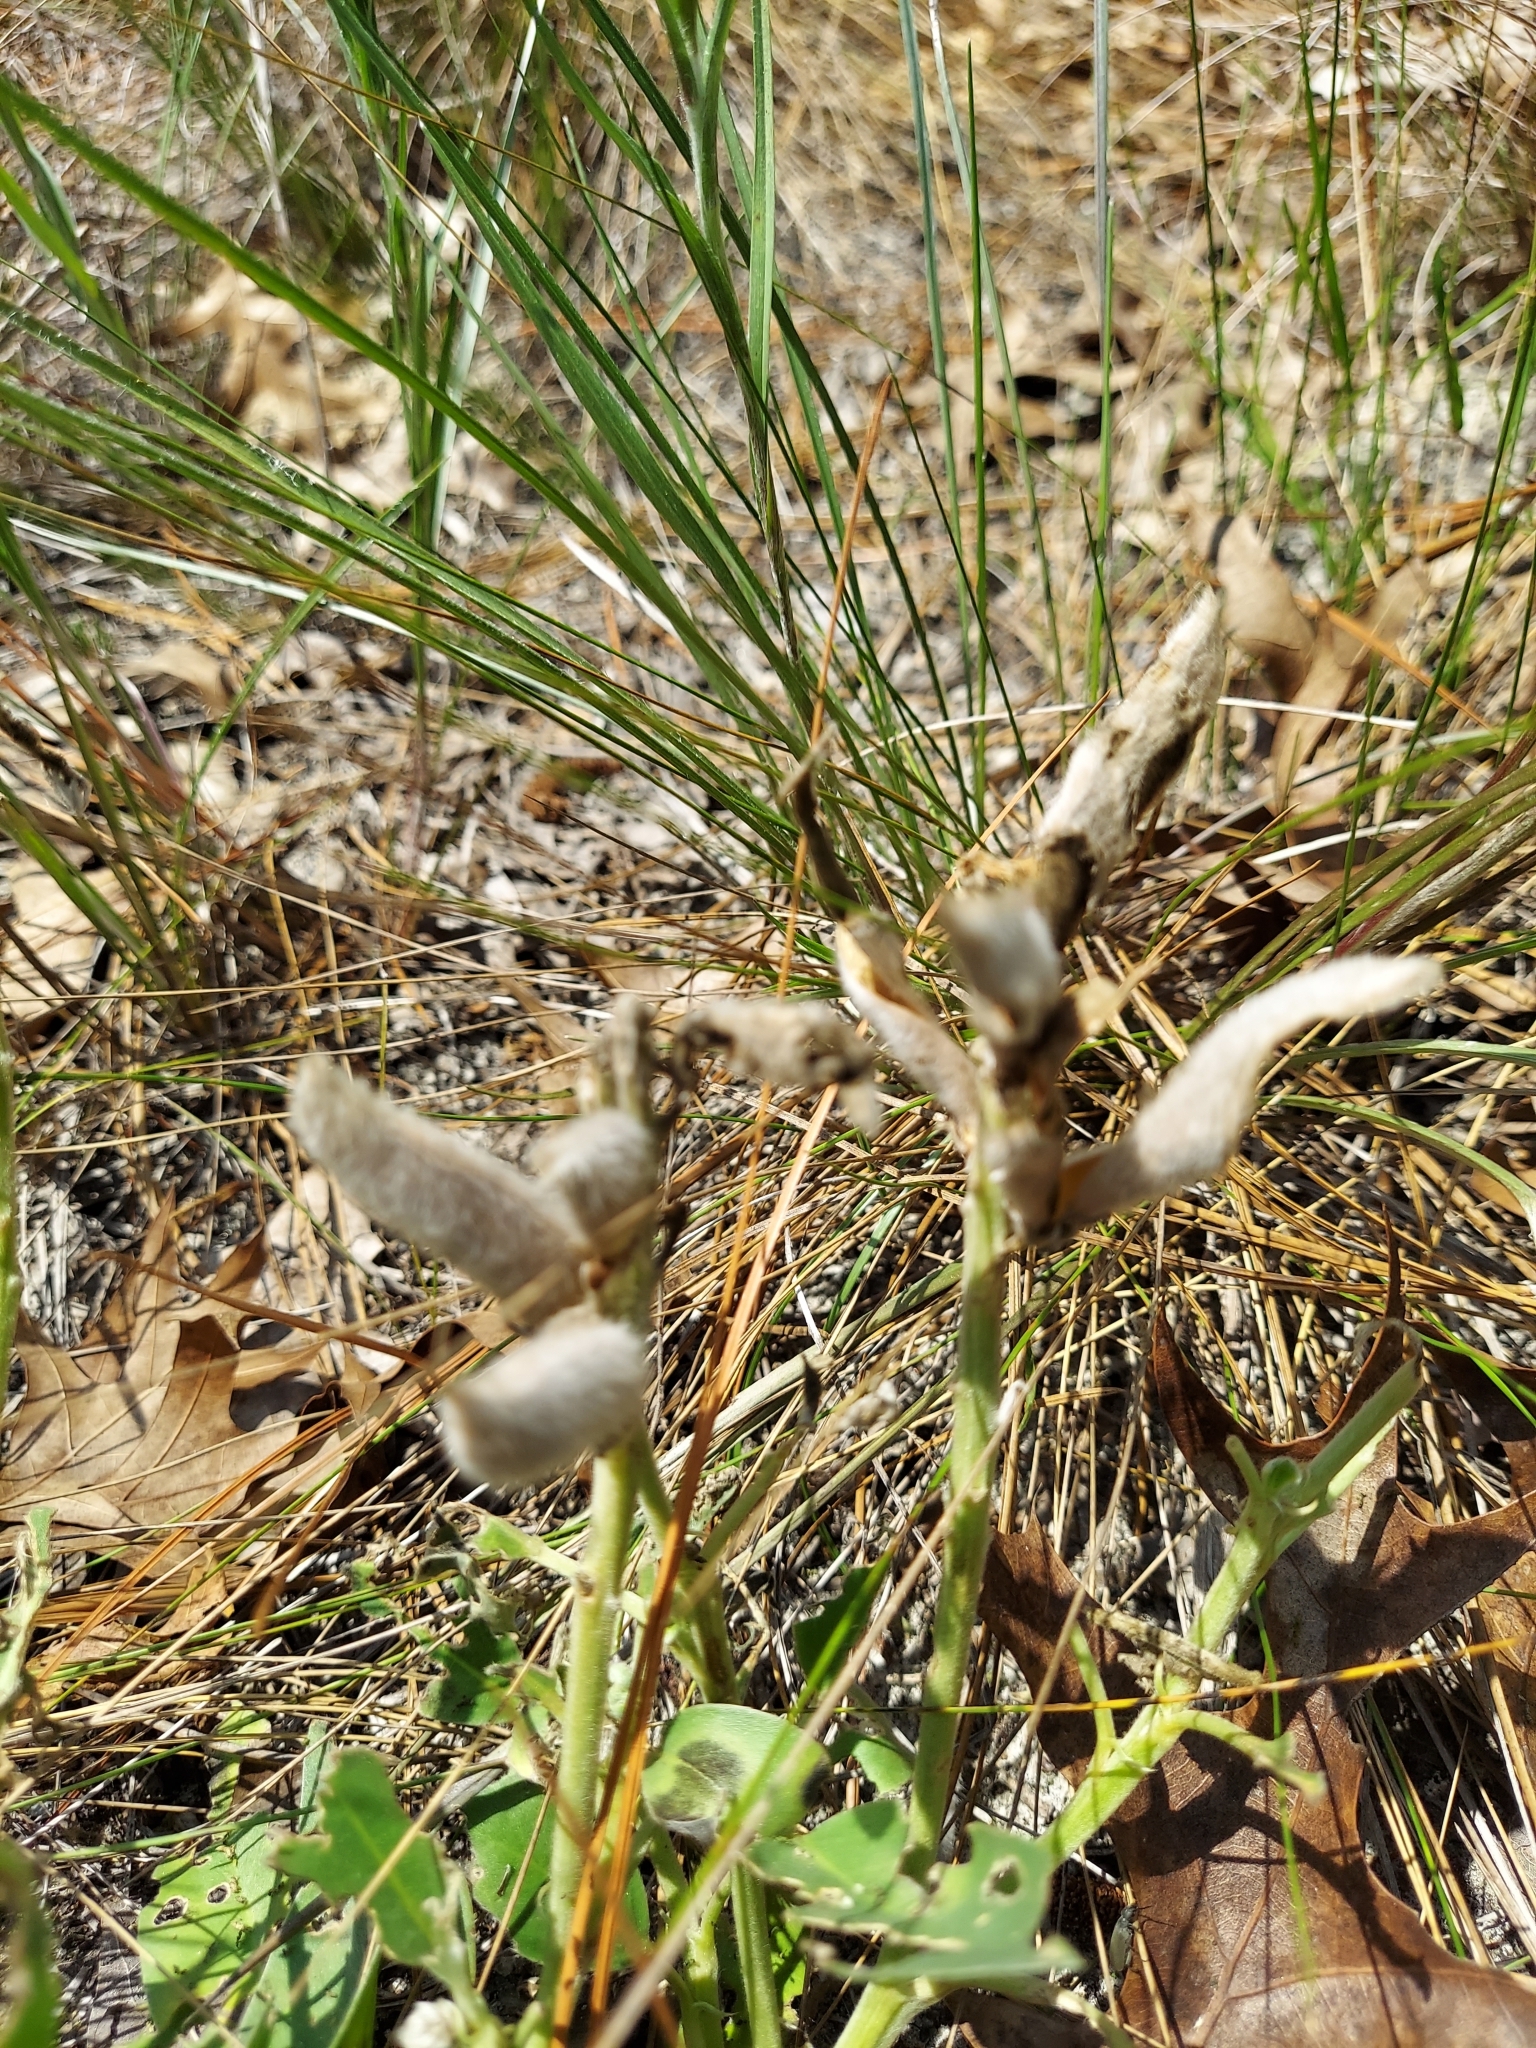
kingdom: Plantae
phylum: Tracheophyta
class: Magnoliopsida
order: Fabales
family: Fabaceae
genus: Lupinus
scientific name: Lupinus
